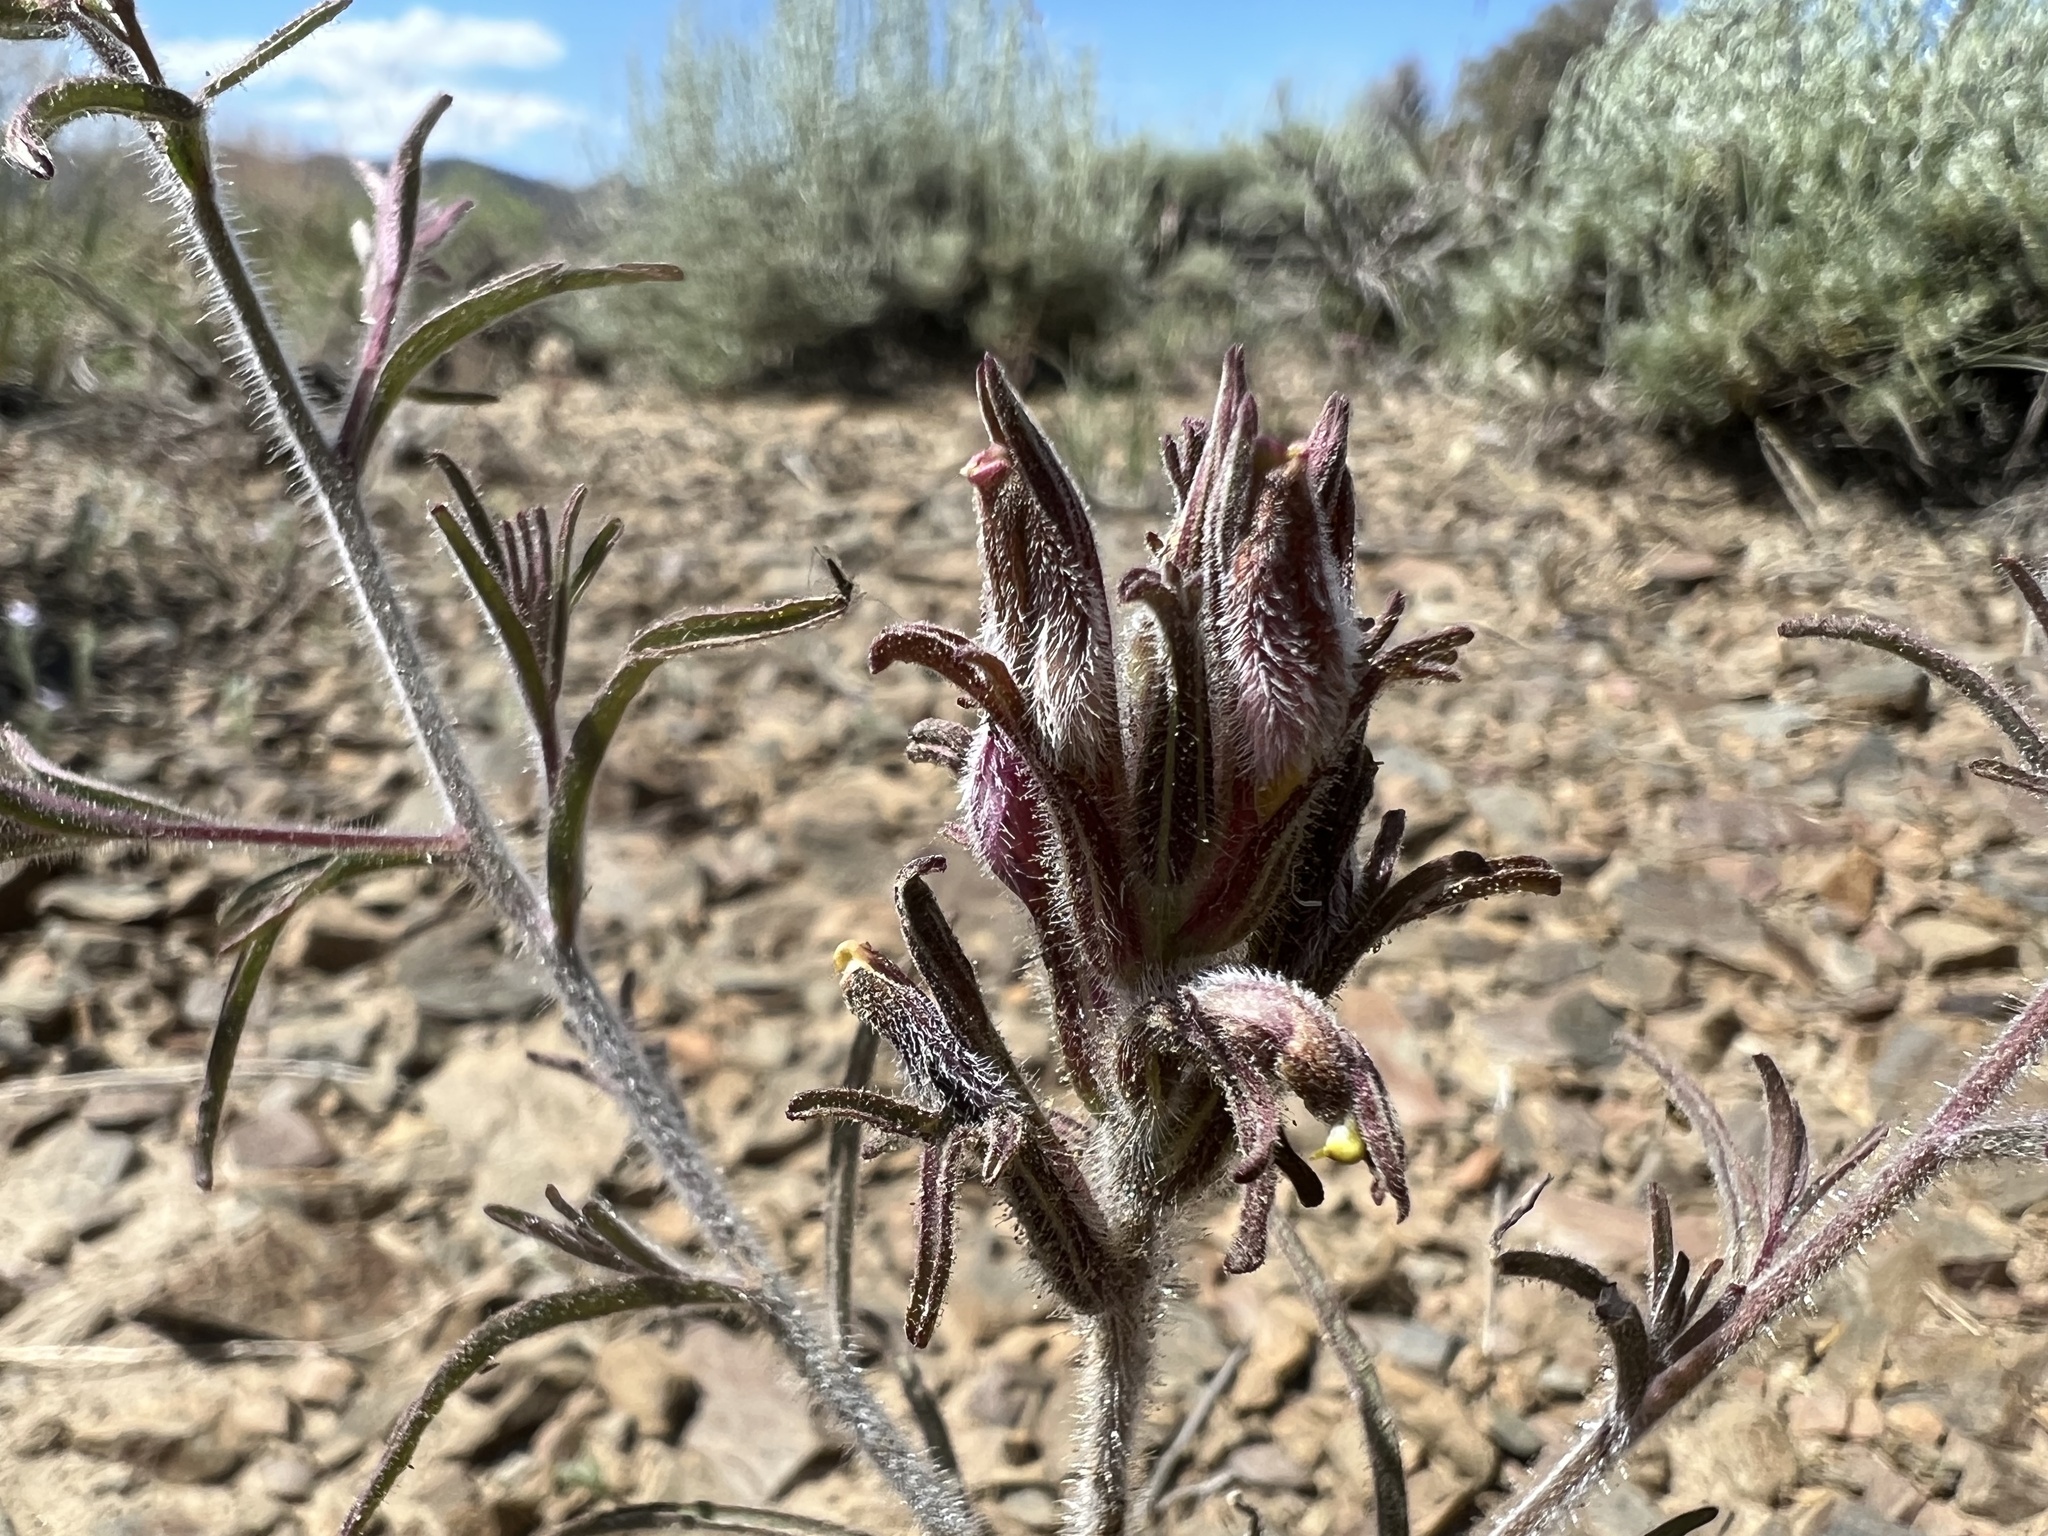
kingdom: Plantae
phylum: Tracheophyta
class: Magnoliopsida
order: Lamiales
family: Orobanchaceae
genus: Cordylanthus
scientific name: Cordylanthus kingii
